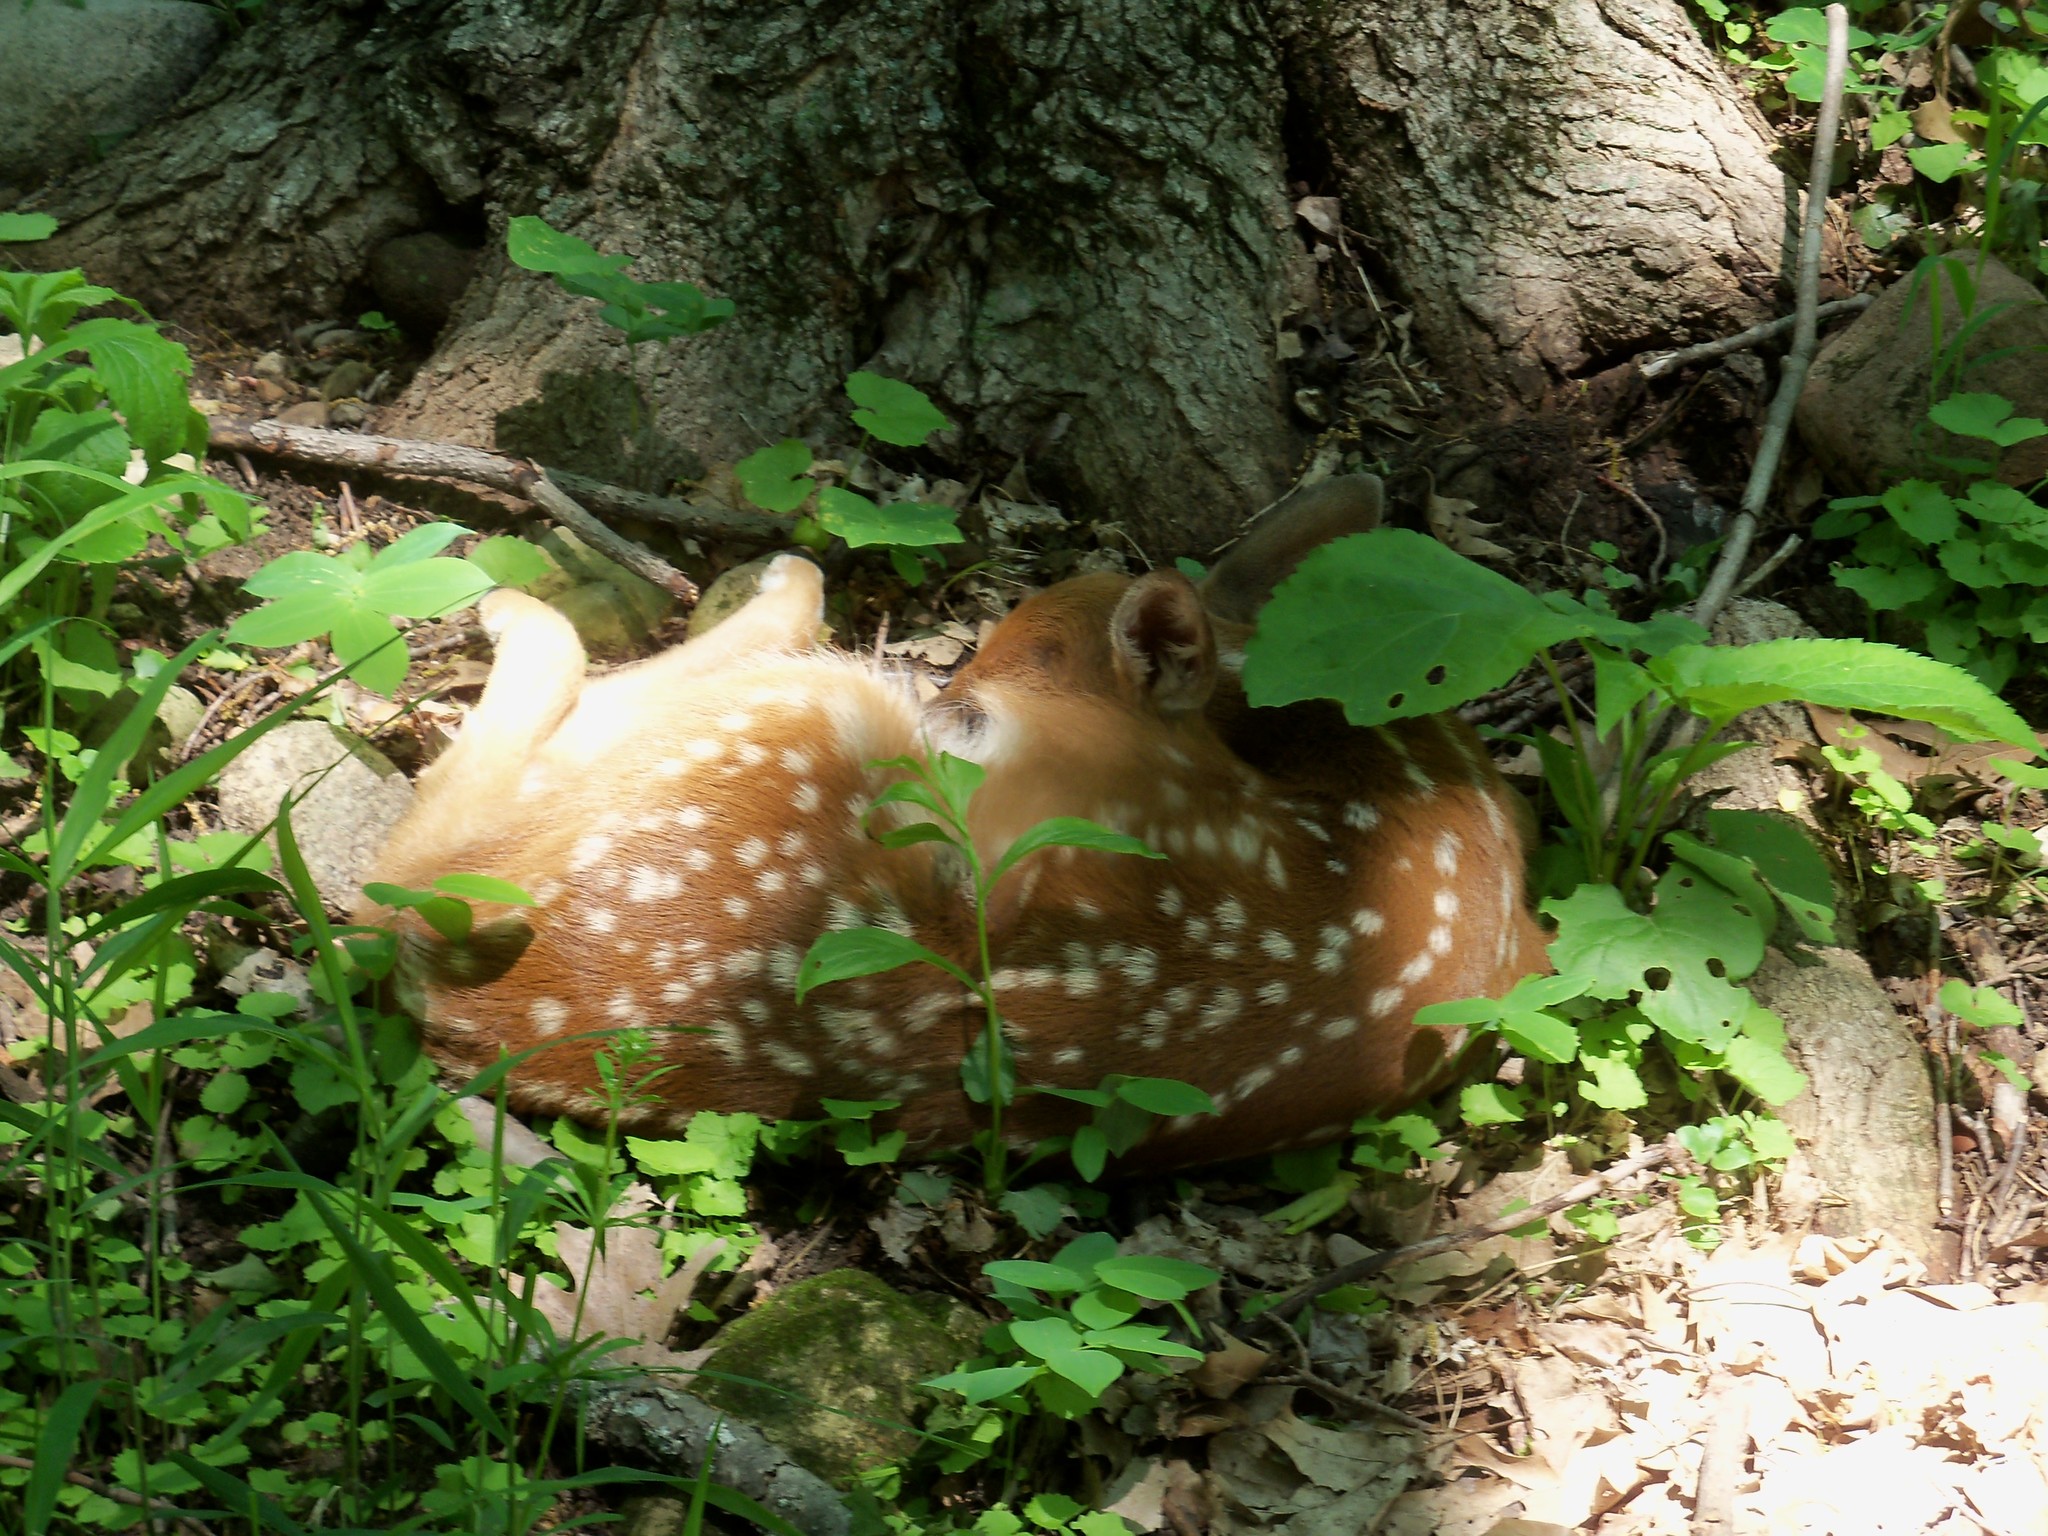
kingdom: Animalia
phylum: Chordata
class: Mammalia
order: Artiodactyla
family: Cervidae
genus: Odocoileus
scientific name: Odocoileus virginianus
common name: White-tailed deer
